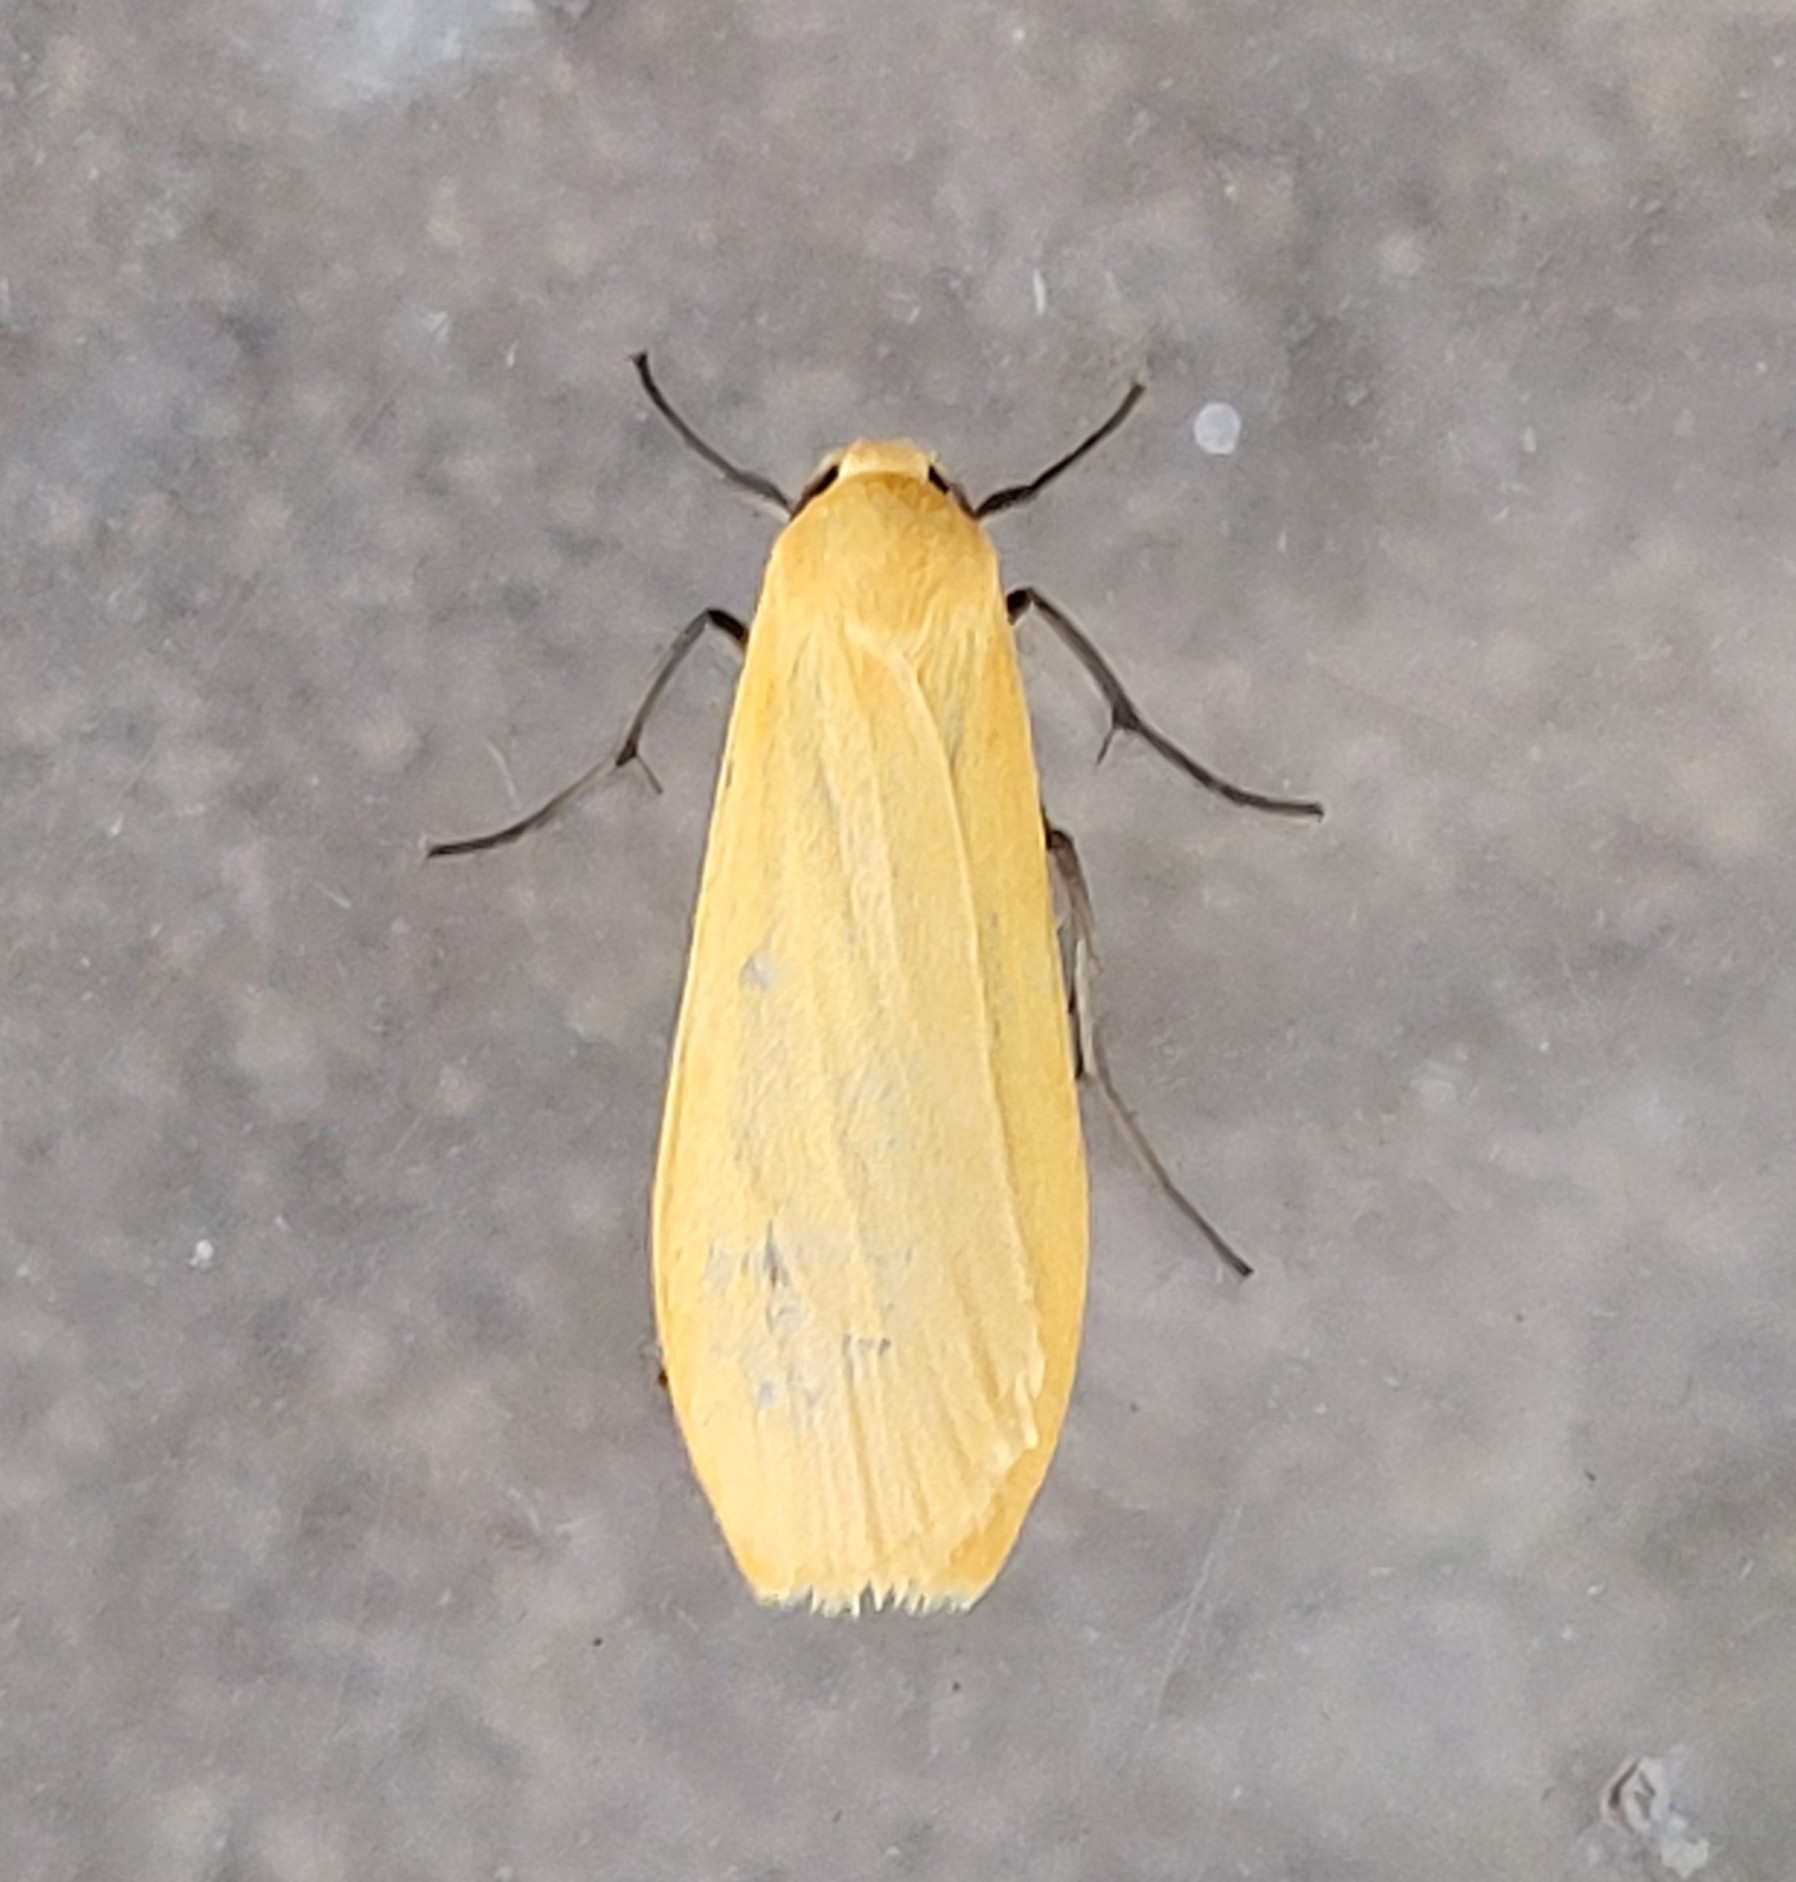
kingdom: Animalia
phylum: Arthropoda
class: Insecta
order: Lepidoptera
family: Erebidae
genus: Wittia
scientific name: Wittia sororcula
